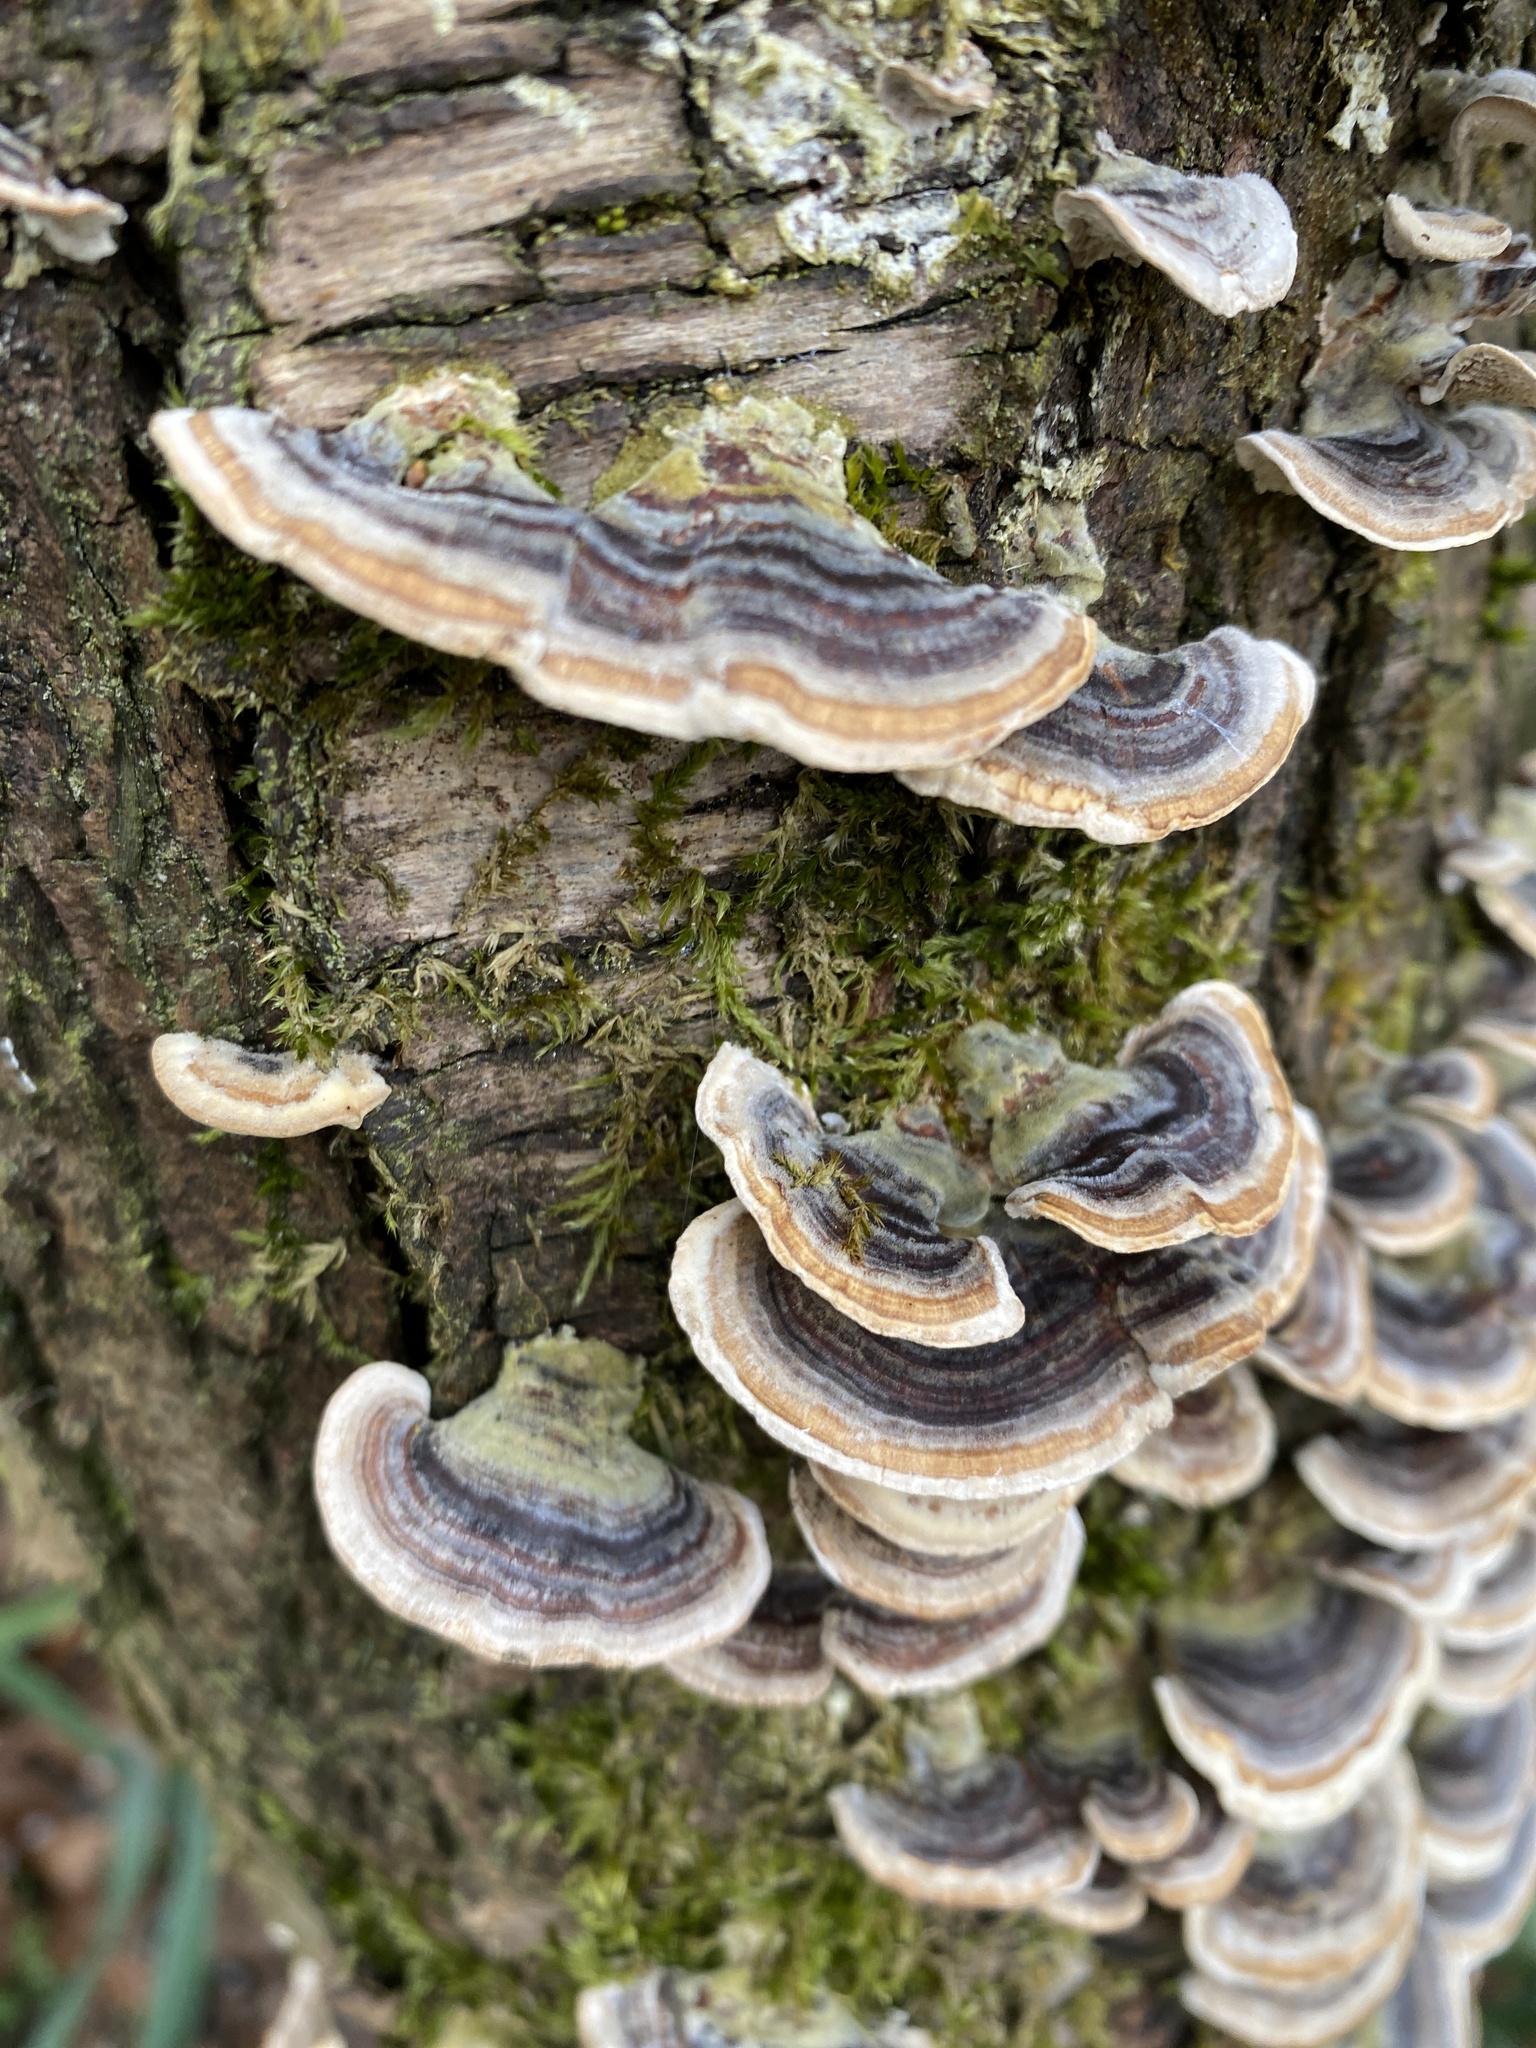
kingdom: Fungi
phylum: Basidiomycota
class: Agaricomycetes
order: Polyporales
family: Polyporaceae
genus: Trametes
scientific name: Trametes versicolor
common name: Turkeytail
